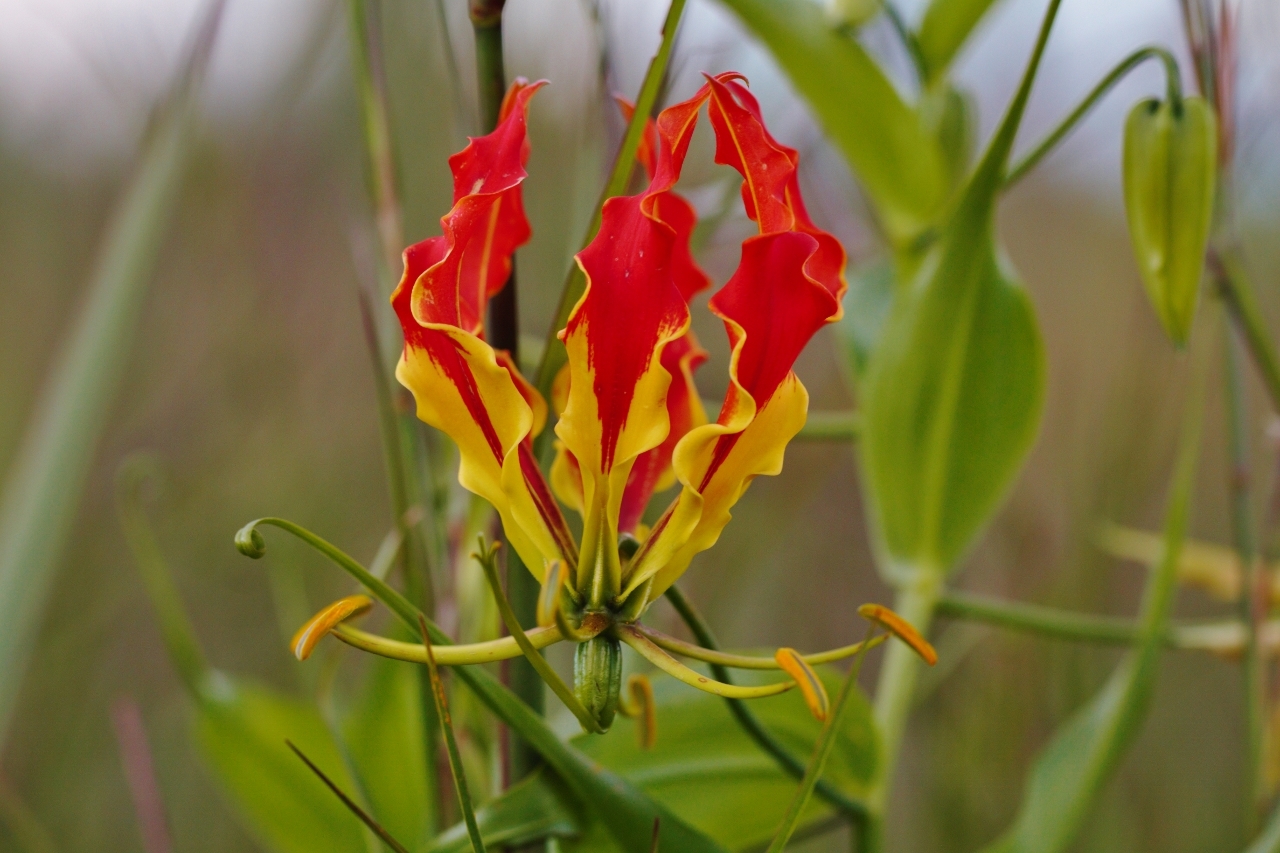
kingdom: Plantae
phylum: Tracheophyta
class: Liliopsida
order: Liliales
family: Colchicaceae
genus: Gloriosa
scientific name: Gloriosa superba
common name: Flame lily
